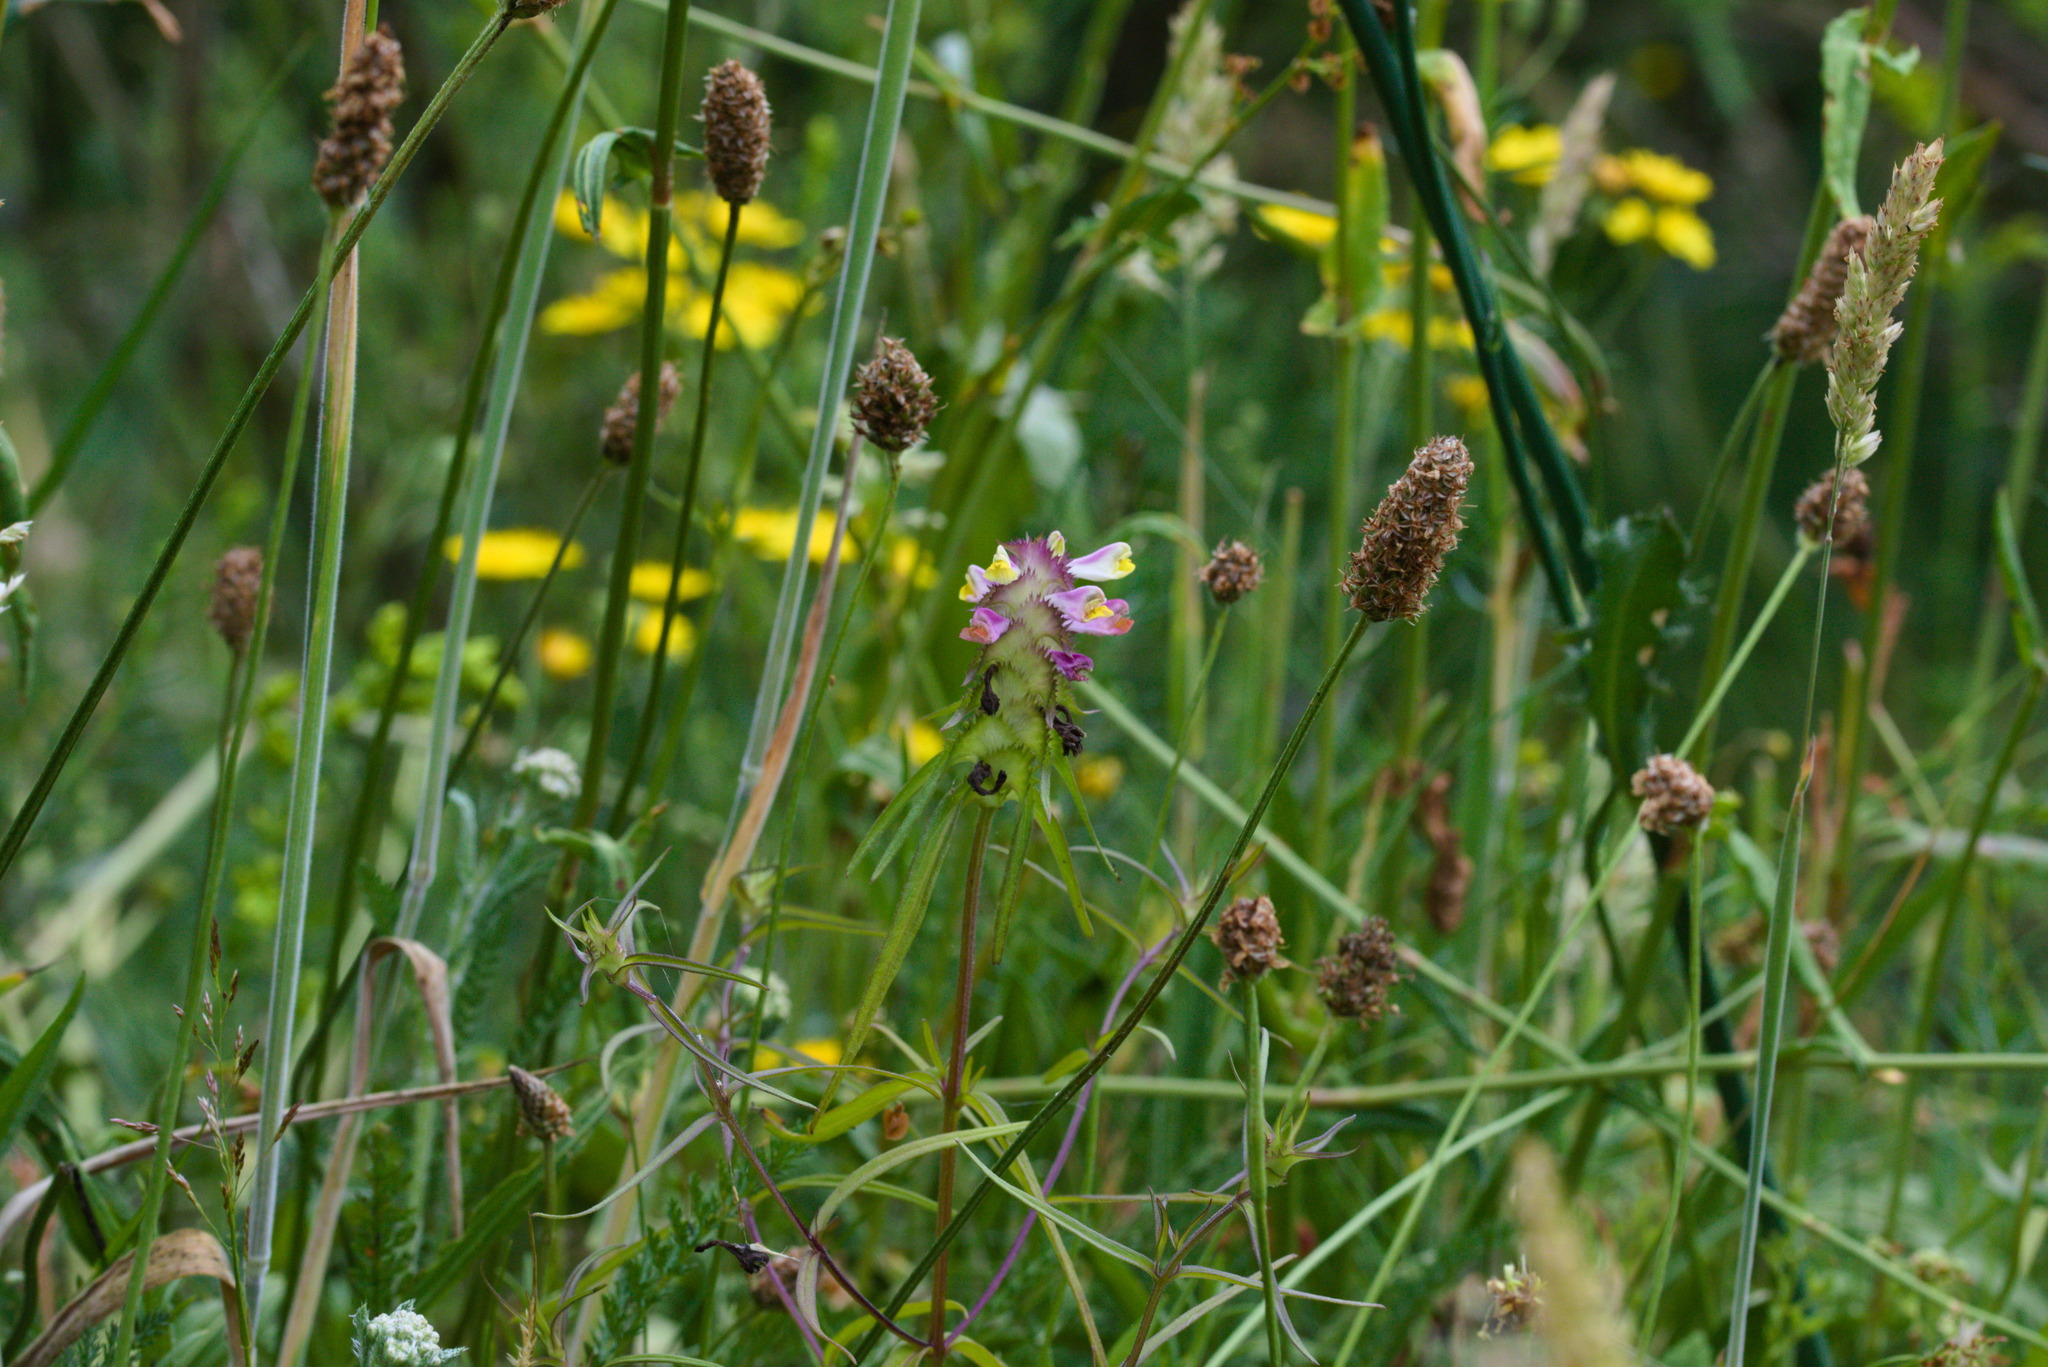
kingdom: Plantae
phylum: Tracheophyta
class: Magnoliopsida
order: Lamiales
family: Orobanchaceae
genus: Melampyrum
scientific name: Melampyrum cristatum
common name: Crested cow-wheat
